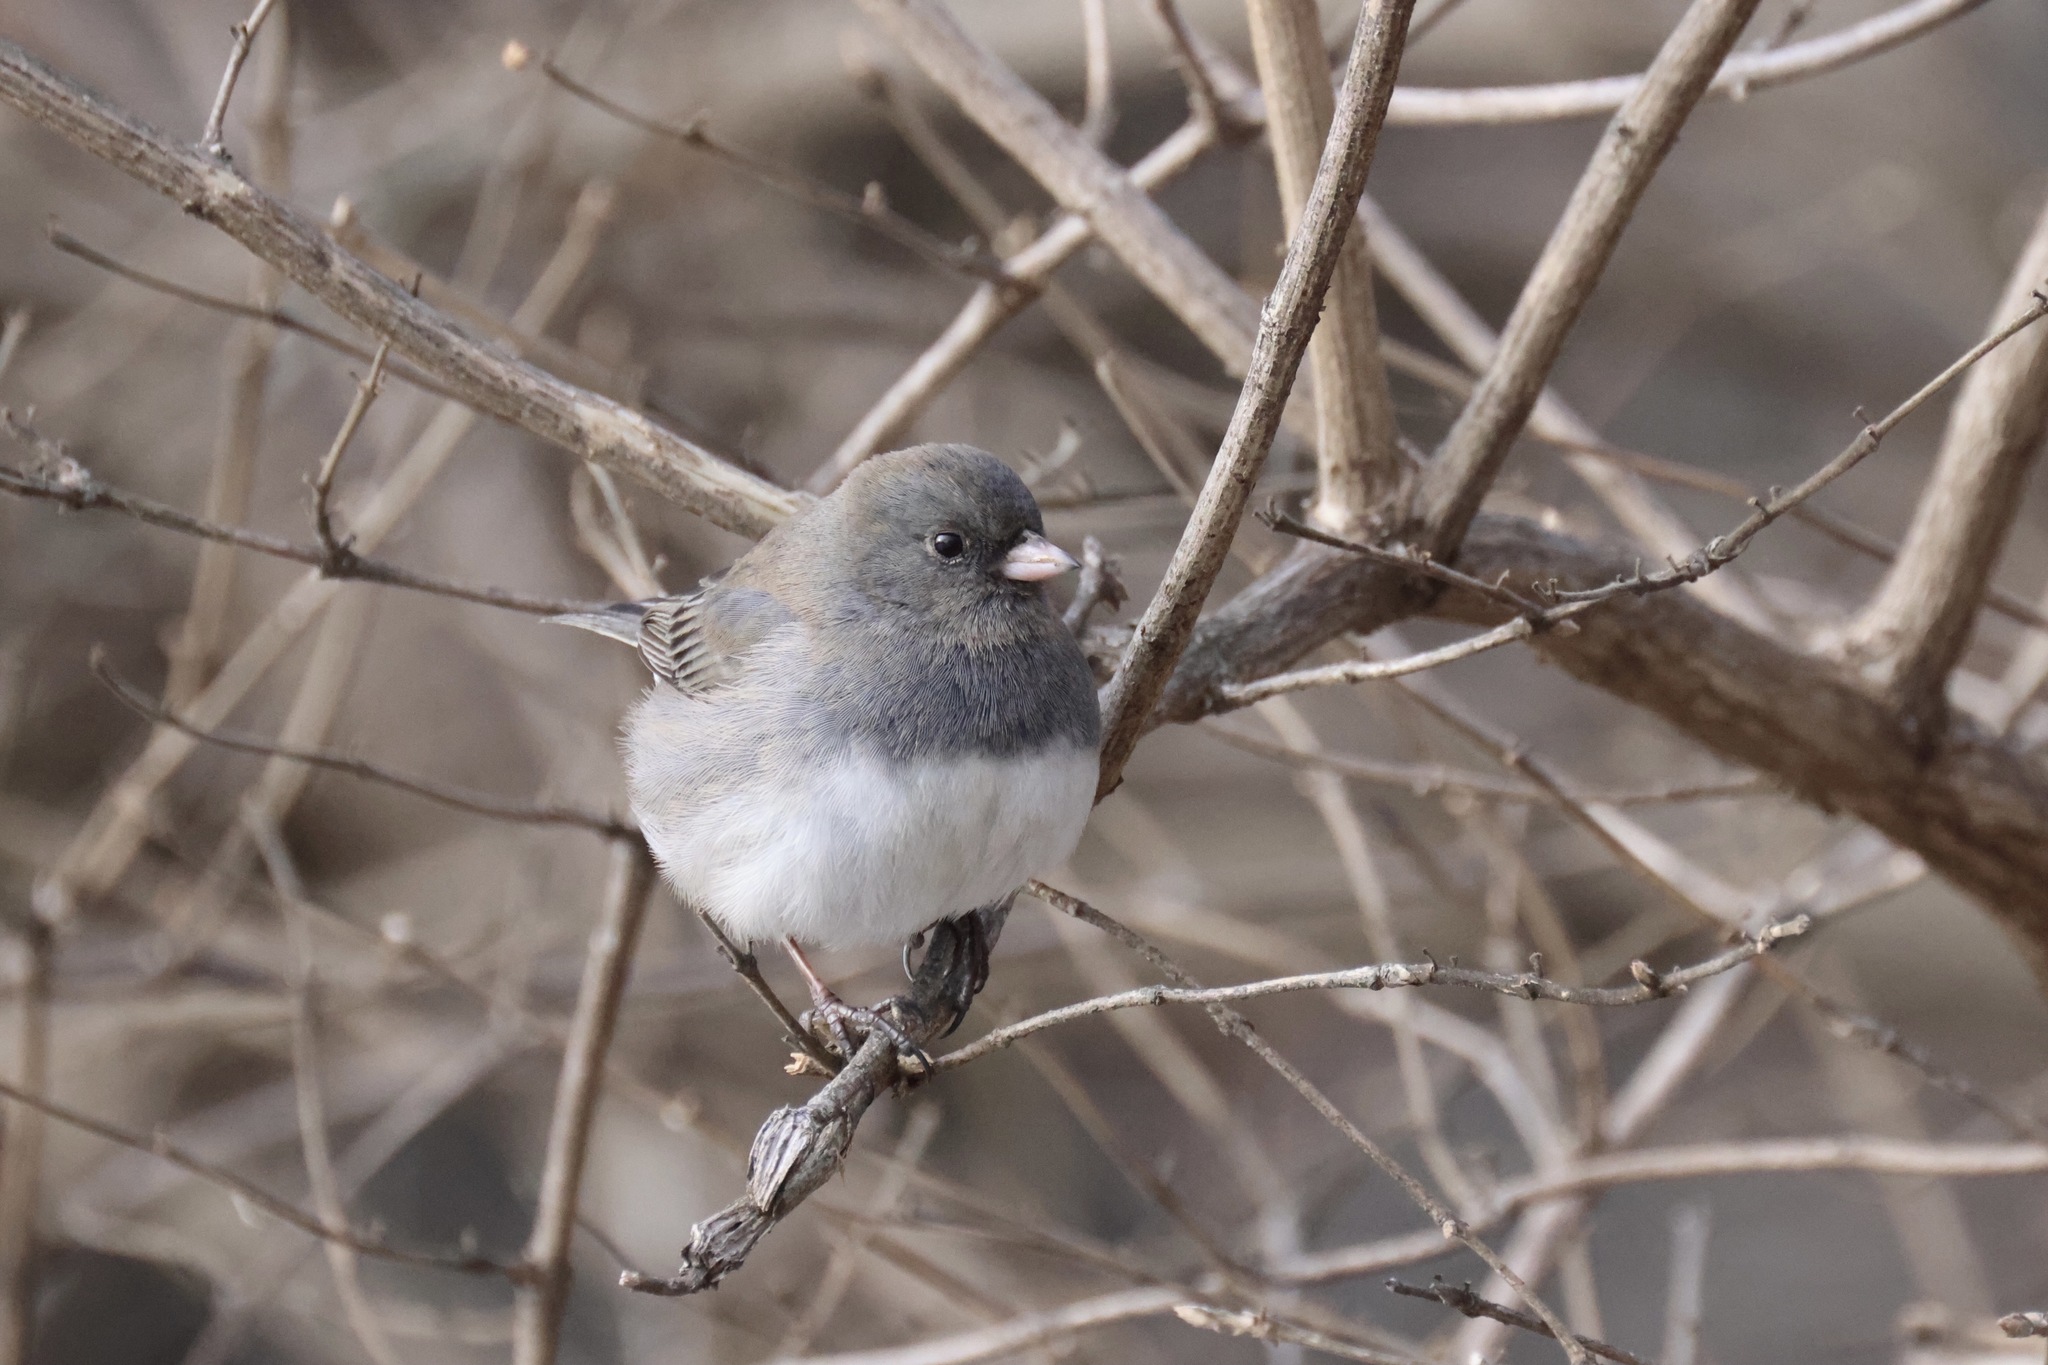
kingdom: Animalia
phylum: Chordata
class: Aves
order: Passeriformes
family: Passerellidae
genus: Junco
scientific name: Junco hyemalis
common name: Dark-eyed junco
